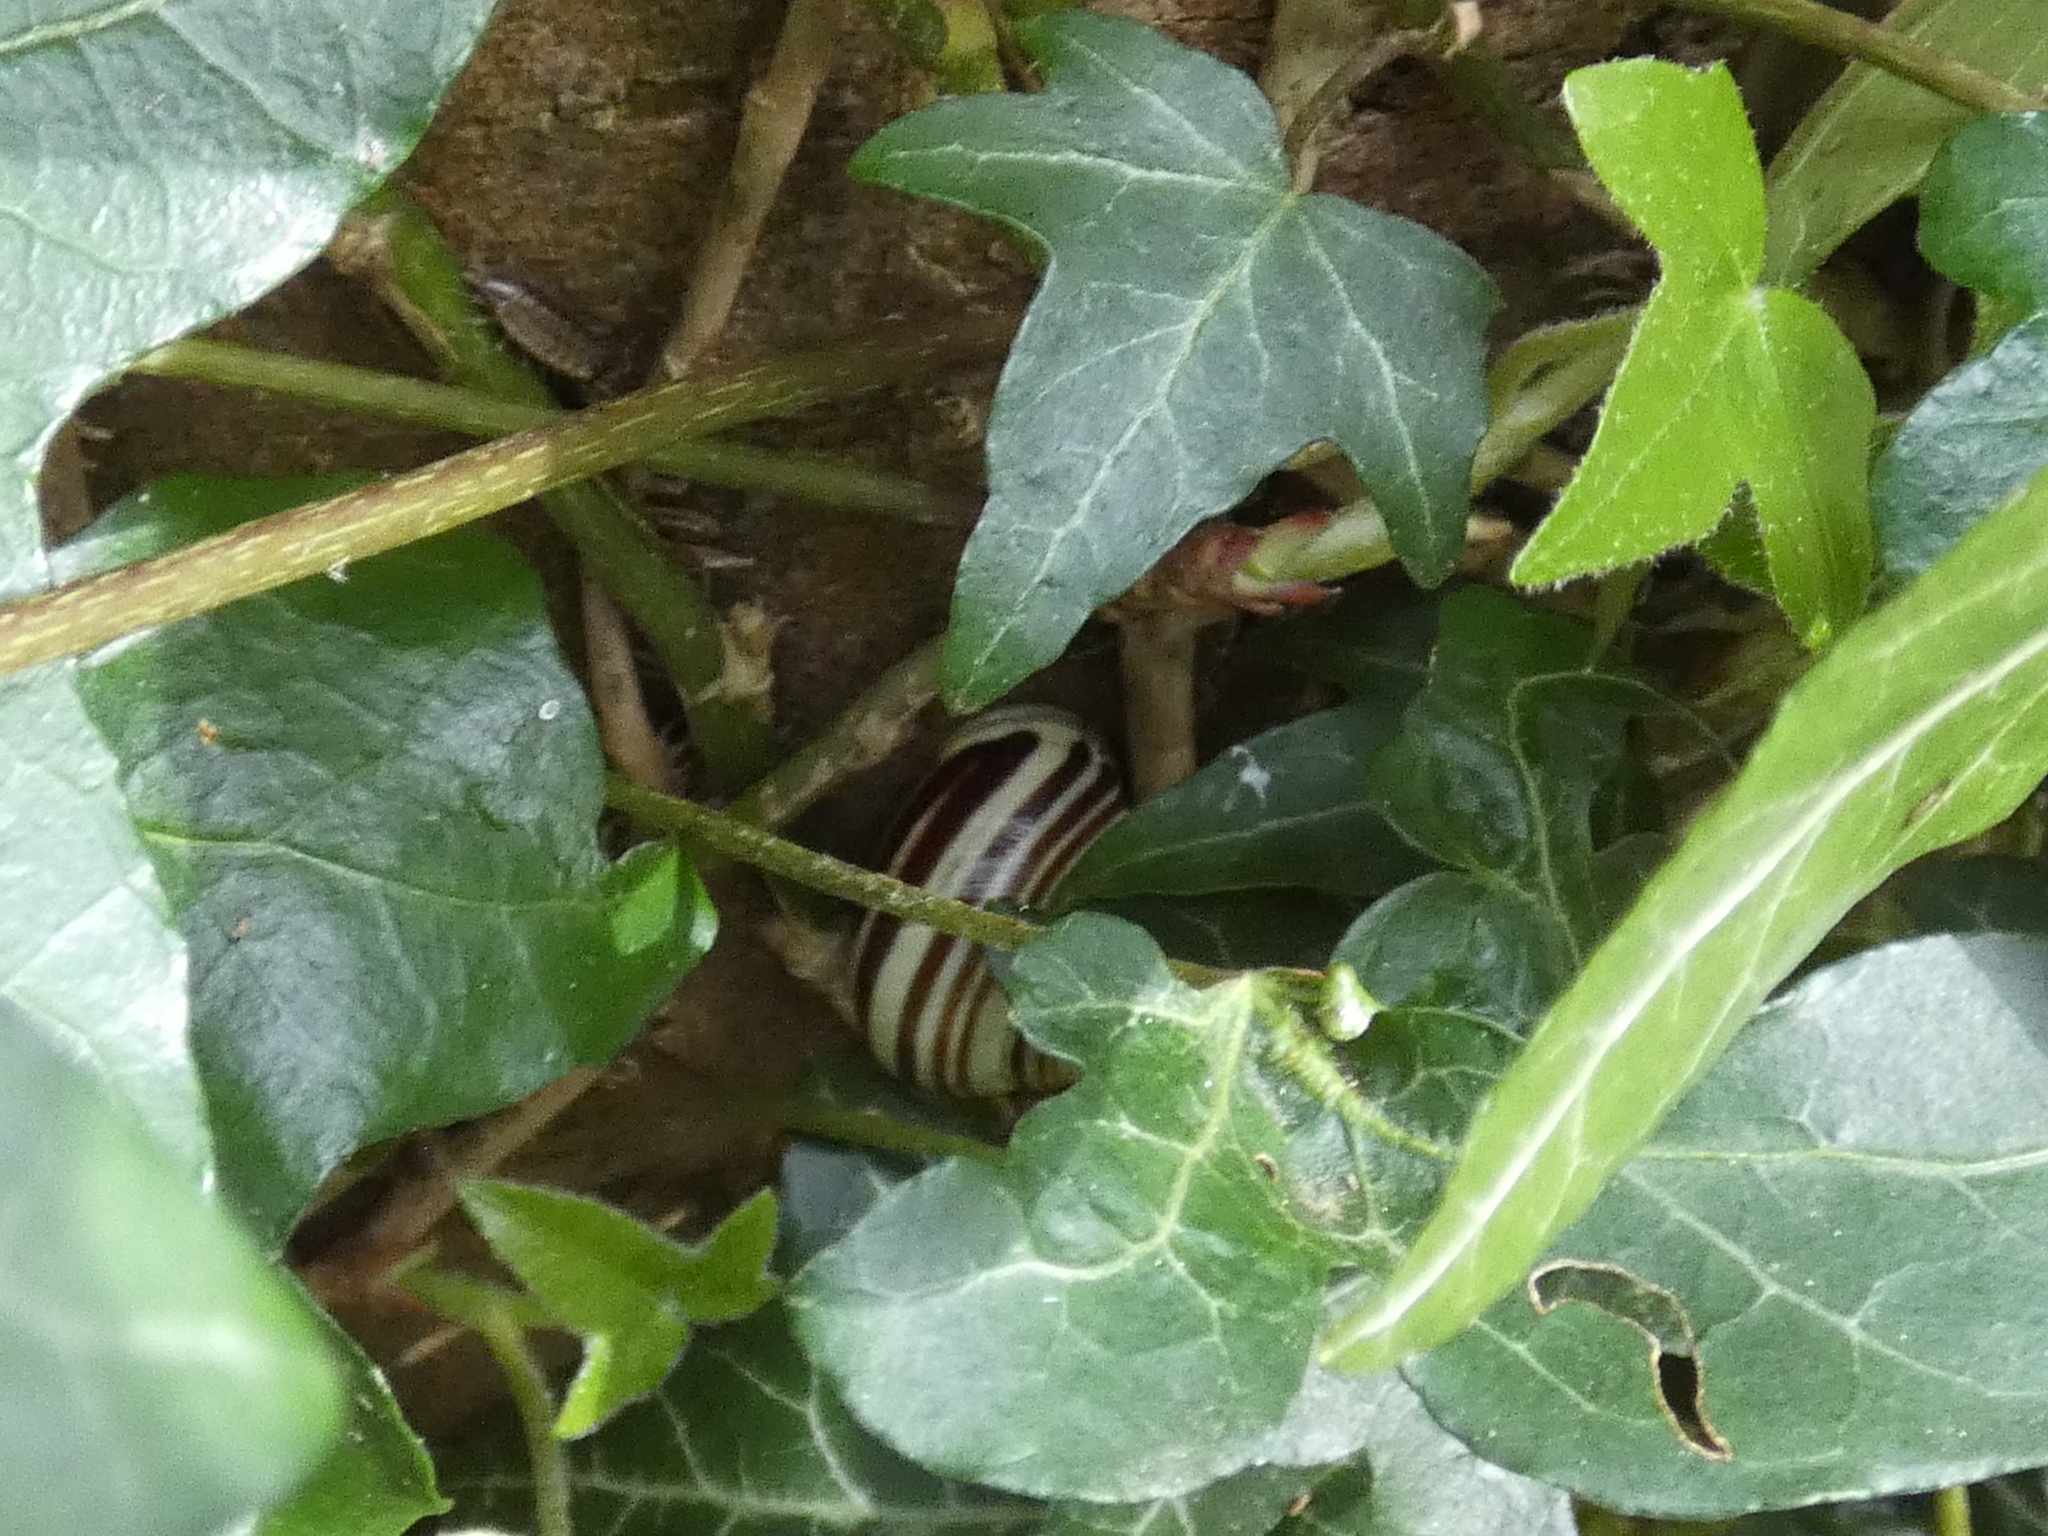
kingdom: Animalia
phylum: Mollusca
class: Gastropoda
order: Stylommatophora
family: Helicidae
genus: Cepaea
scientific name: Cepaea hortensis
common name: White-lip gardensnail
